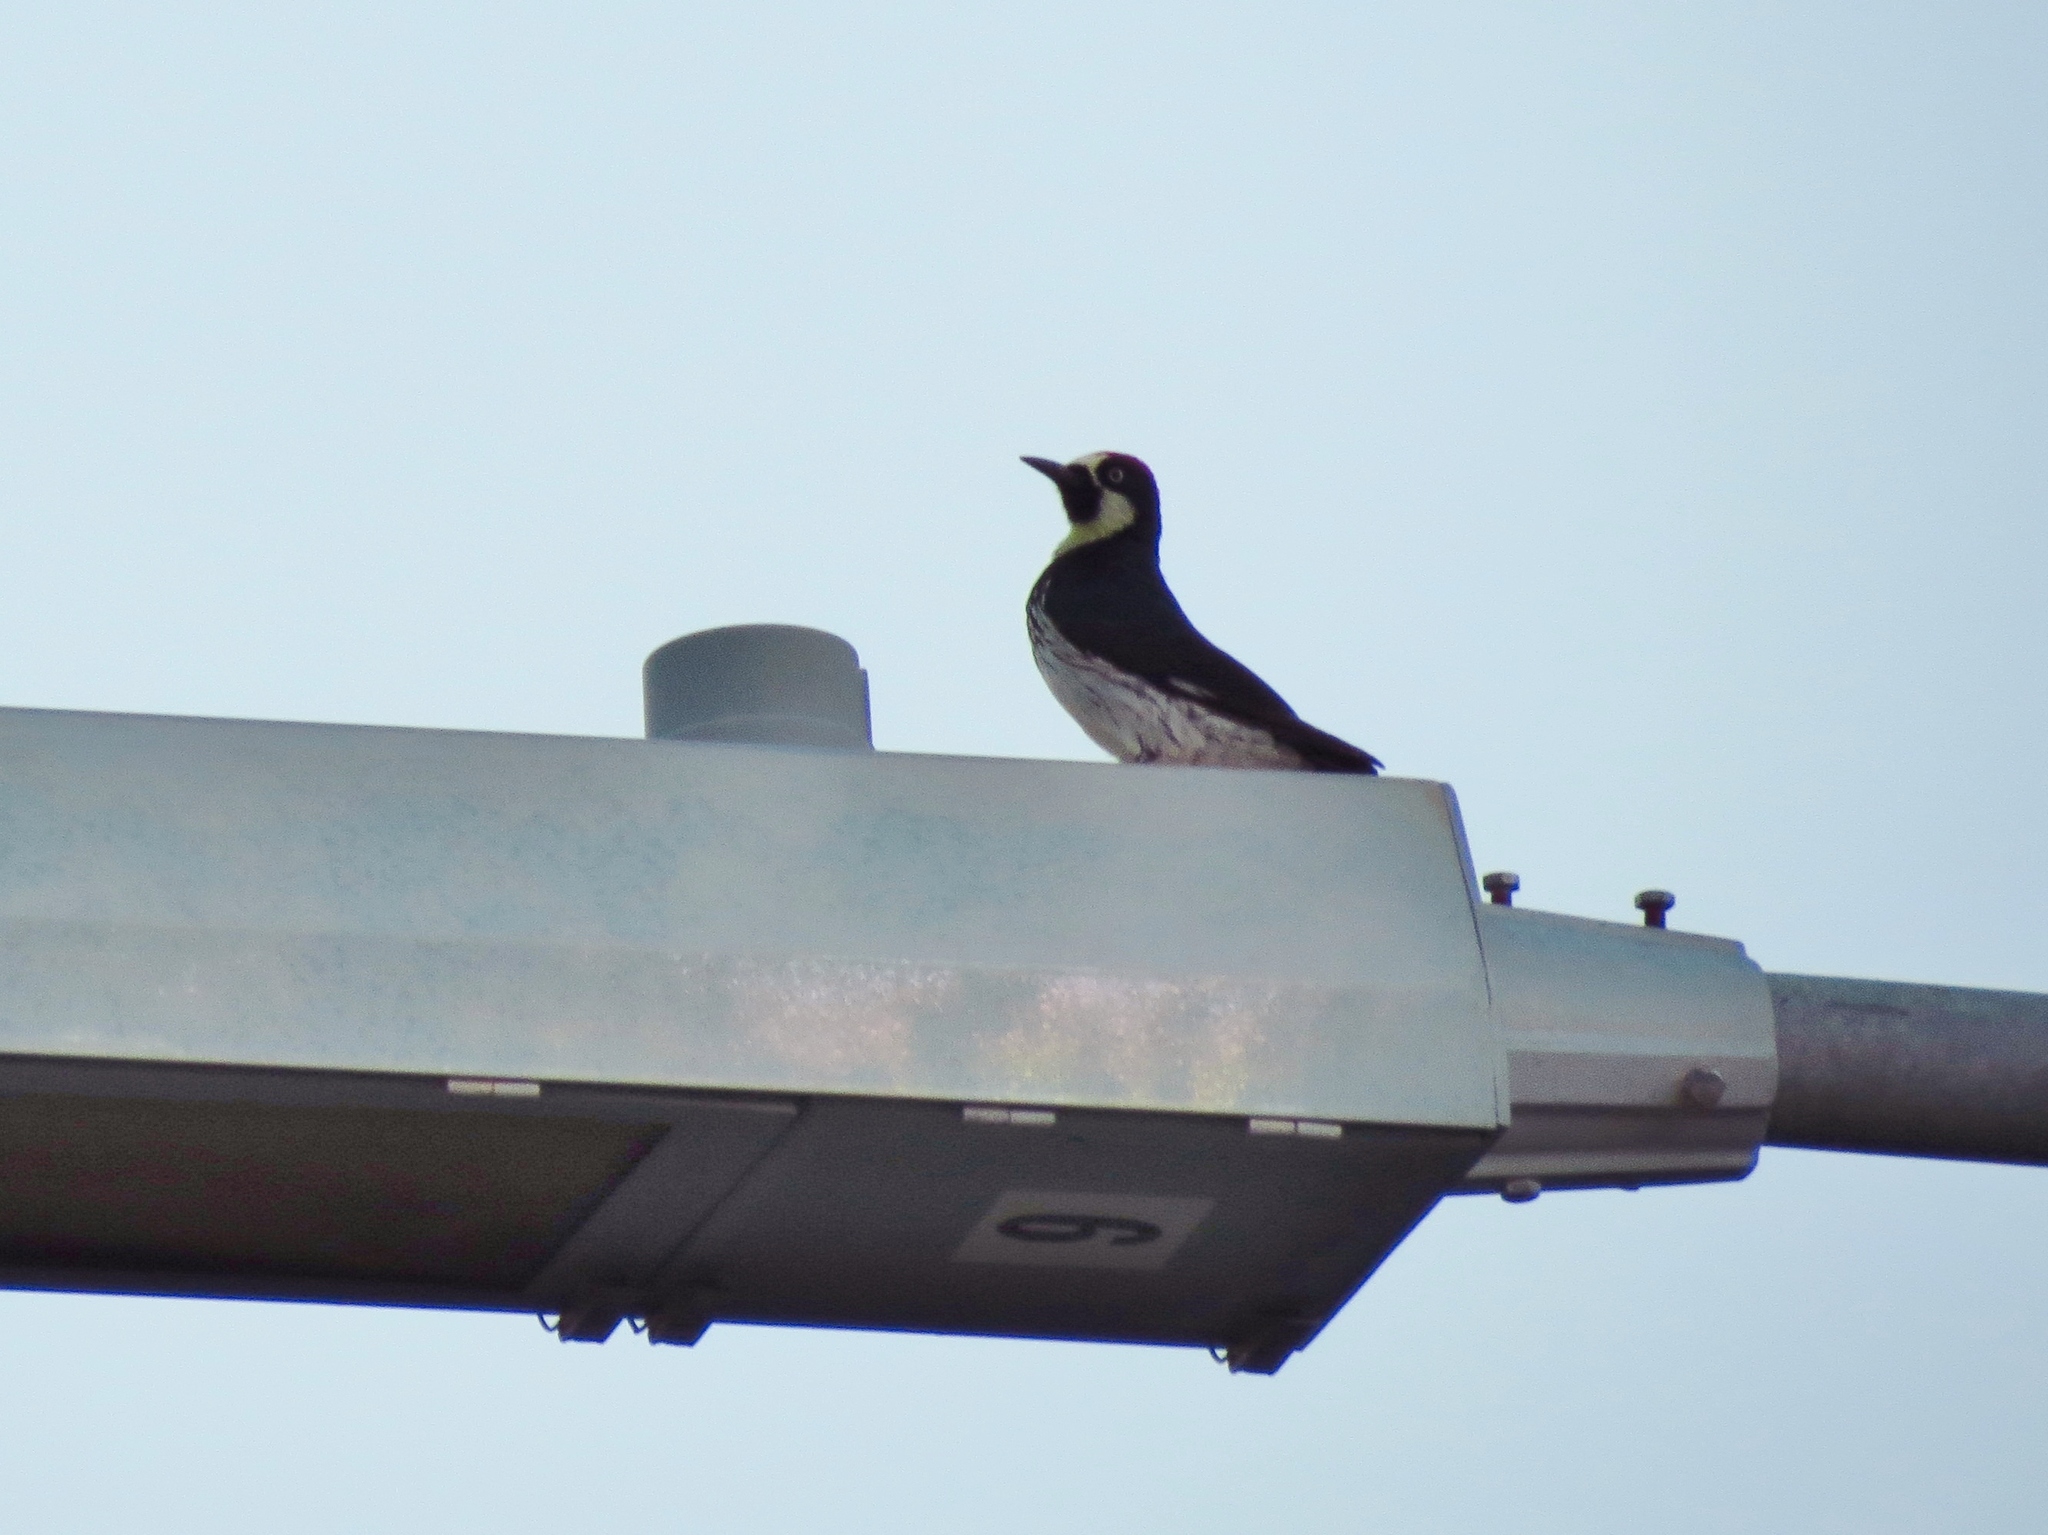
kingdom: Animalia
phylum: Chordata
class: Aves
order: Piciformes
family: Picidae
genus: Melanerpes
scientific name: Melanerpes formicivorus
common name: Acorn woodpecker
